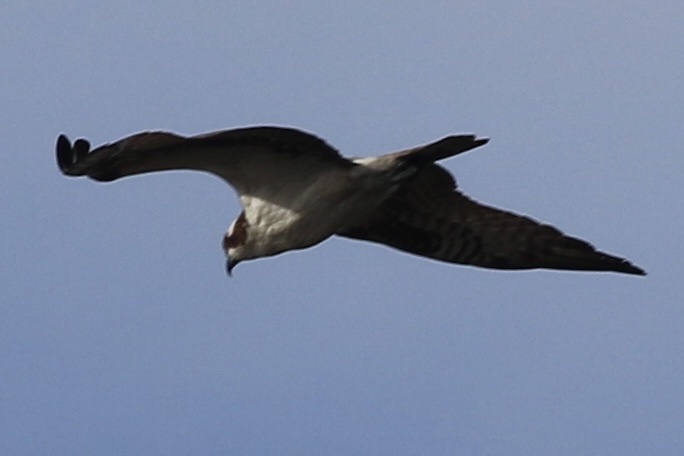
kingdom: Animalia
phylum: Chordata
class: Aves
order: Accipitriformes
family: Pandionidae
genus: Pandion
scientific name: Pandion haliaetus
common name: Osprey
